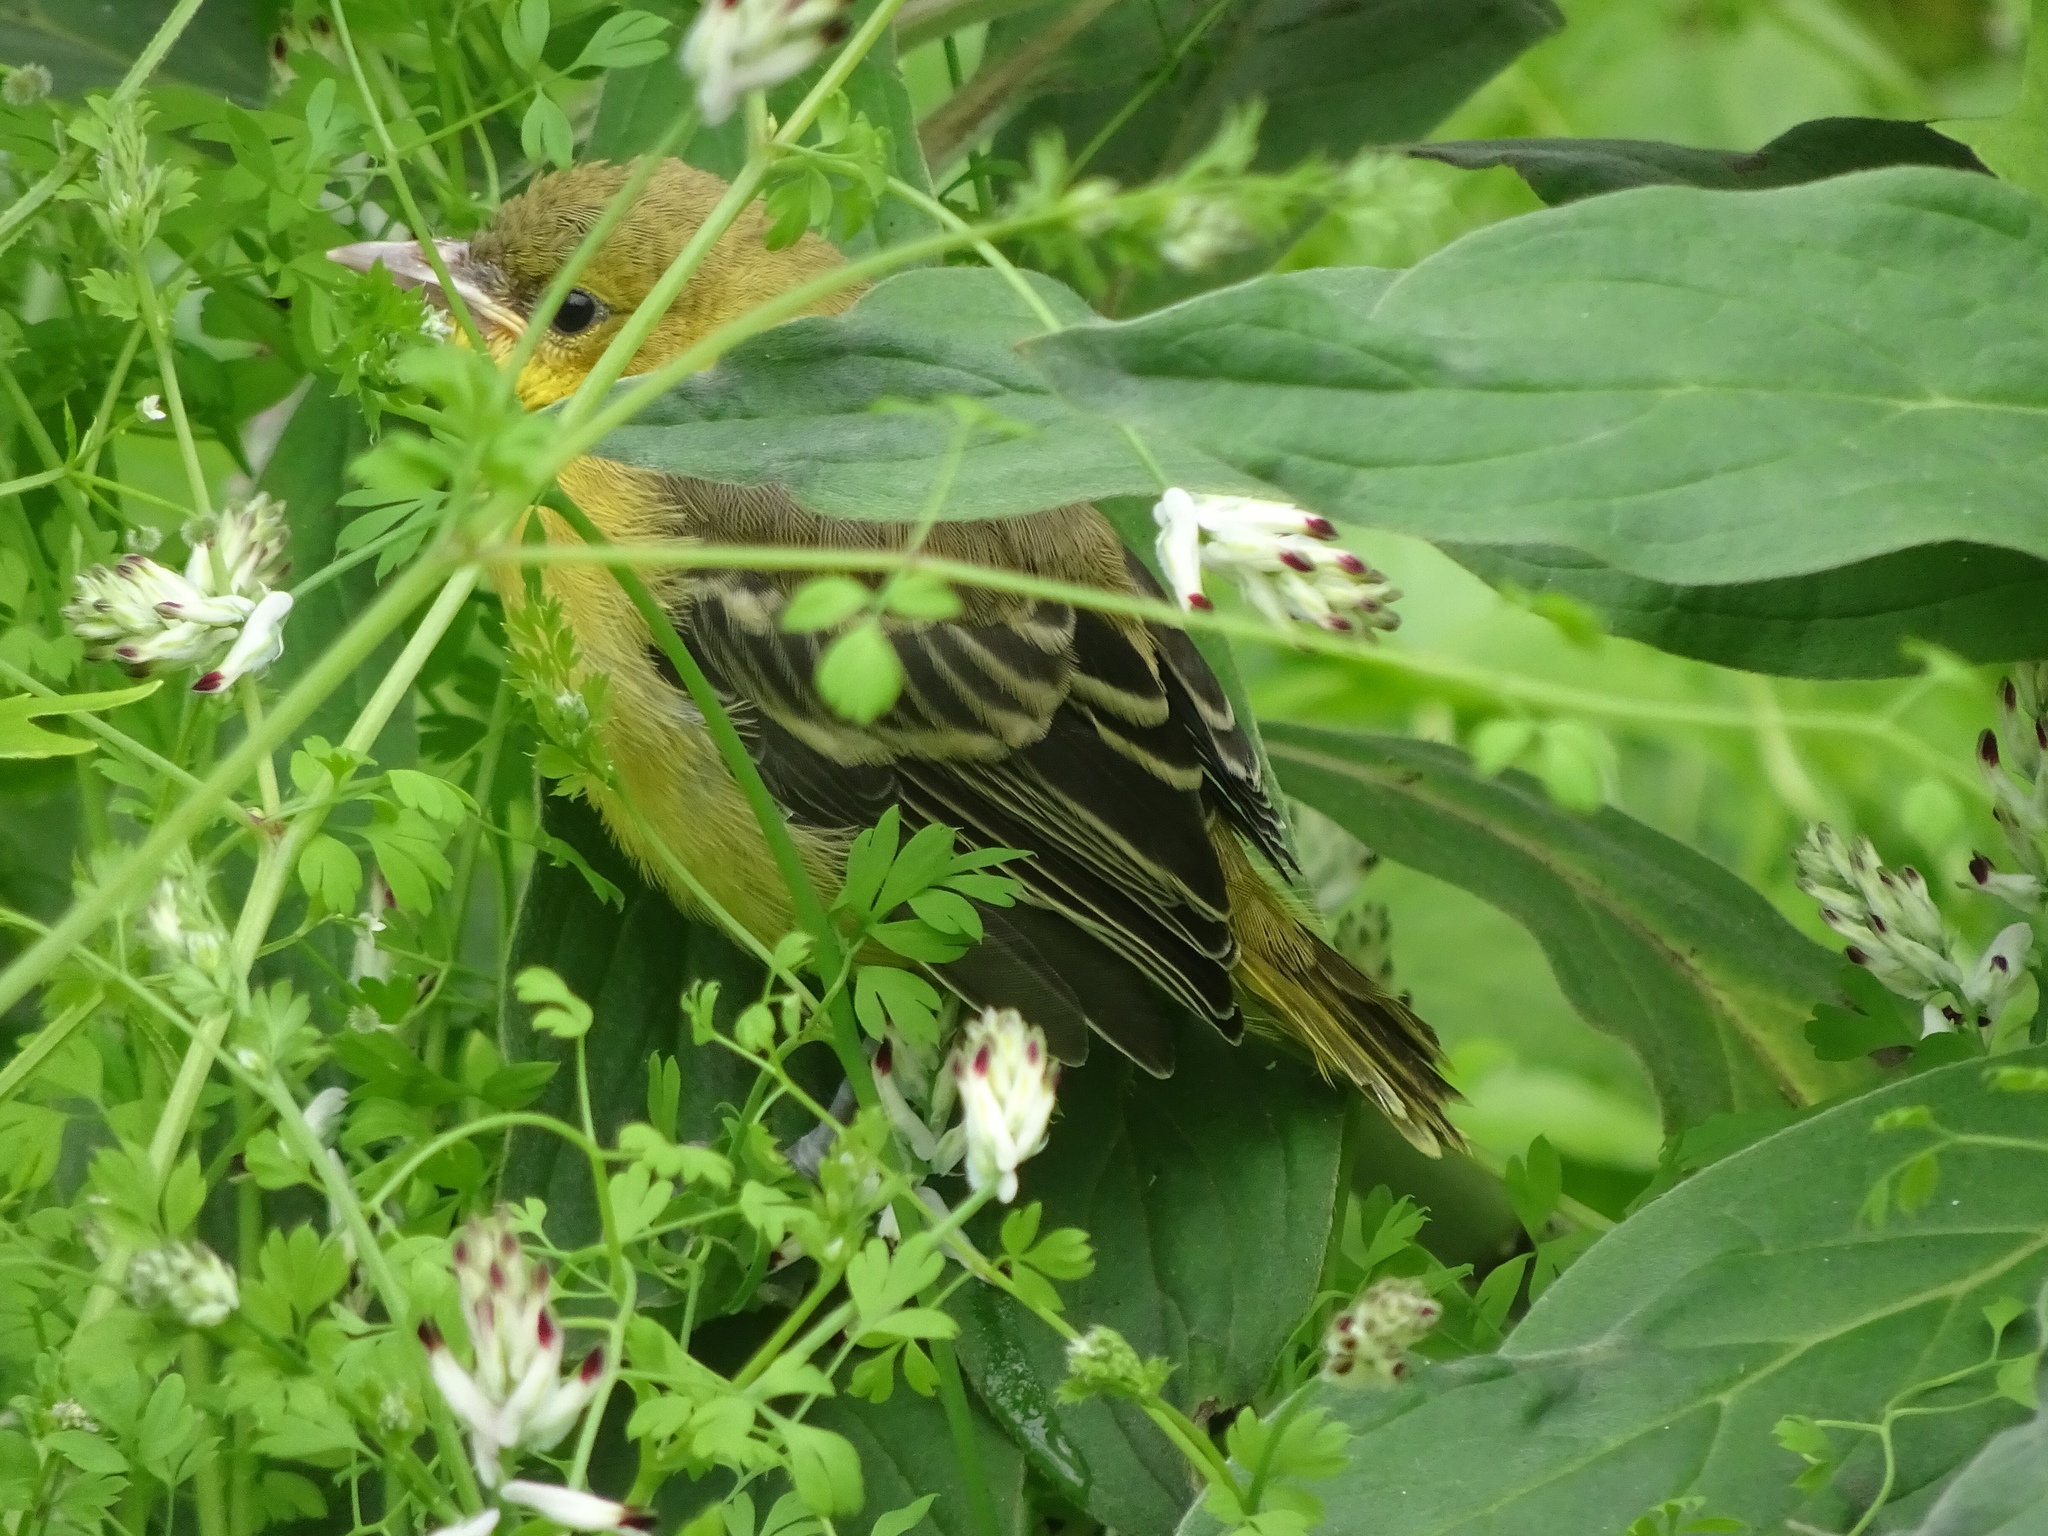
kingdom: Animalia
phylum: Chordata
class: Aves
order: Passeriformes
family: Icteridae
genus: Icterus
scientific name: Icterus cucullatus
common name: Hooded oriole
